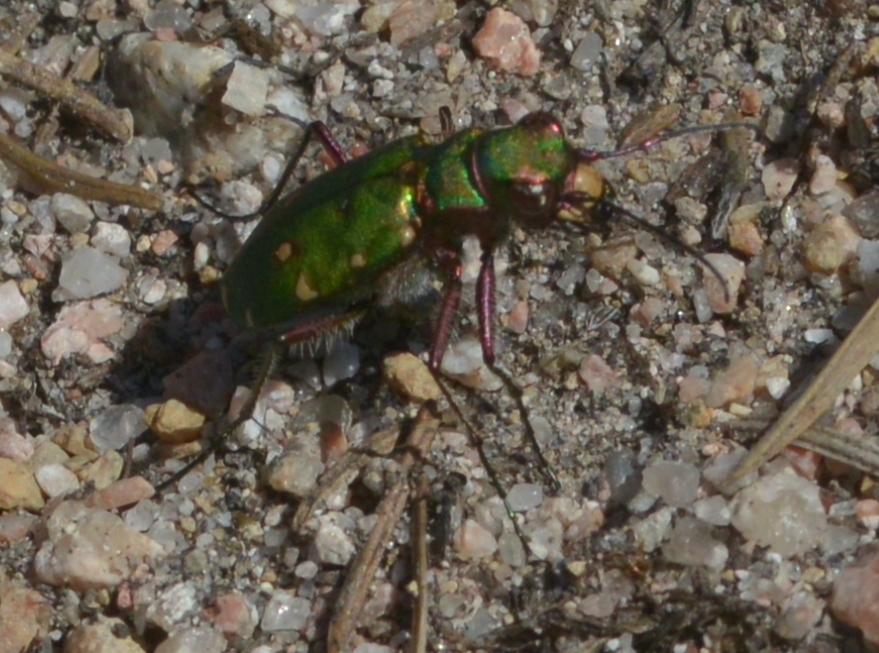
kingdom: Animalia
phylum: Arthropoda
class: Insecta
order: Coleoptera
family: Carabidae
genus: Cicindela
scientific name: Cicindela campestris
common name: Common tiger beetle
